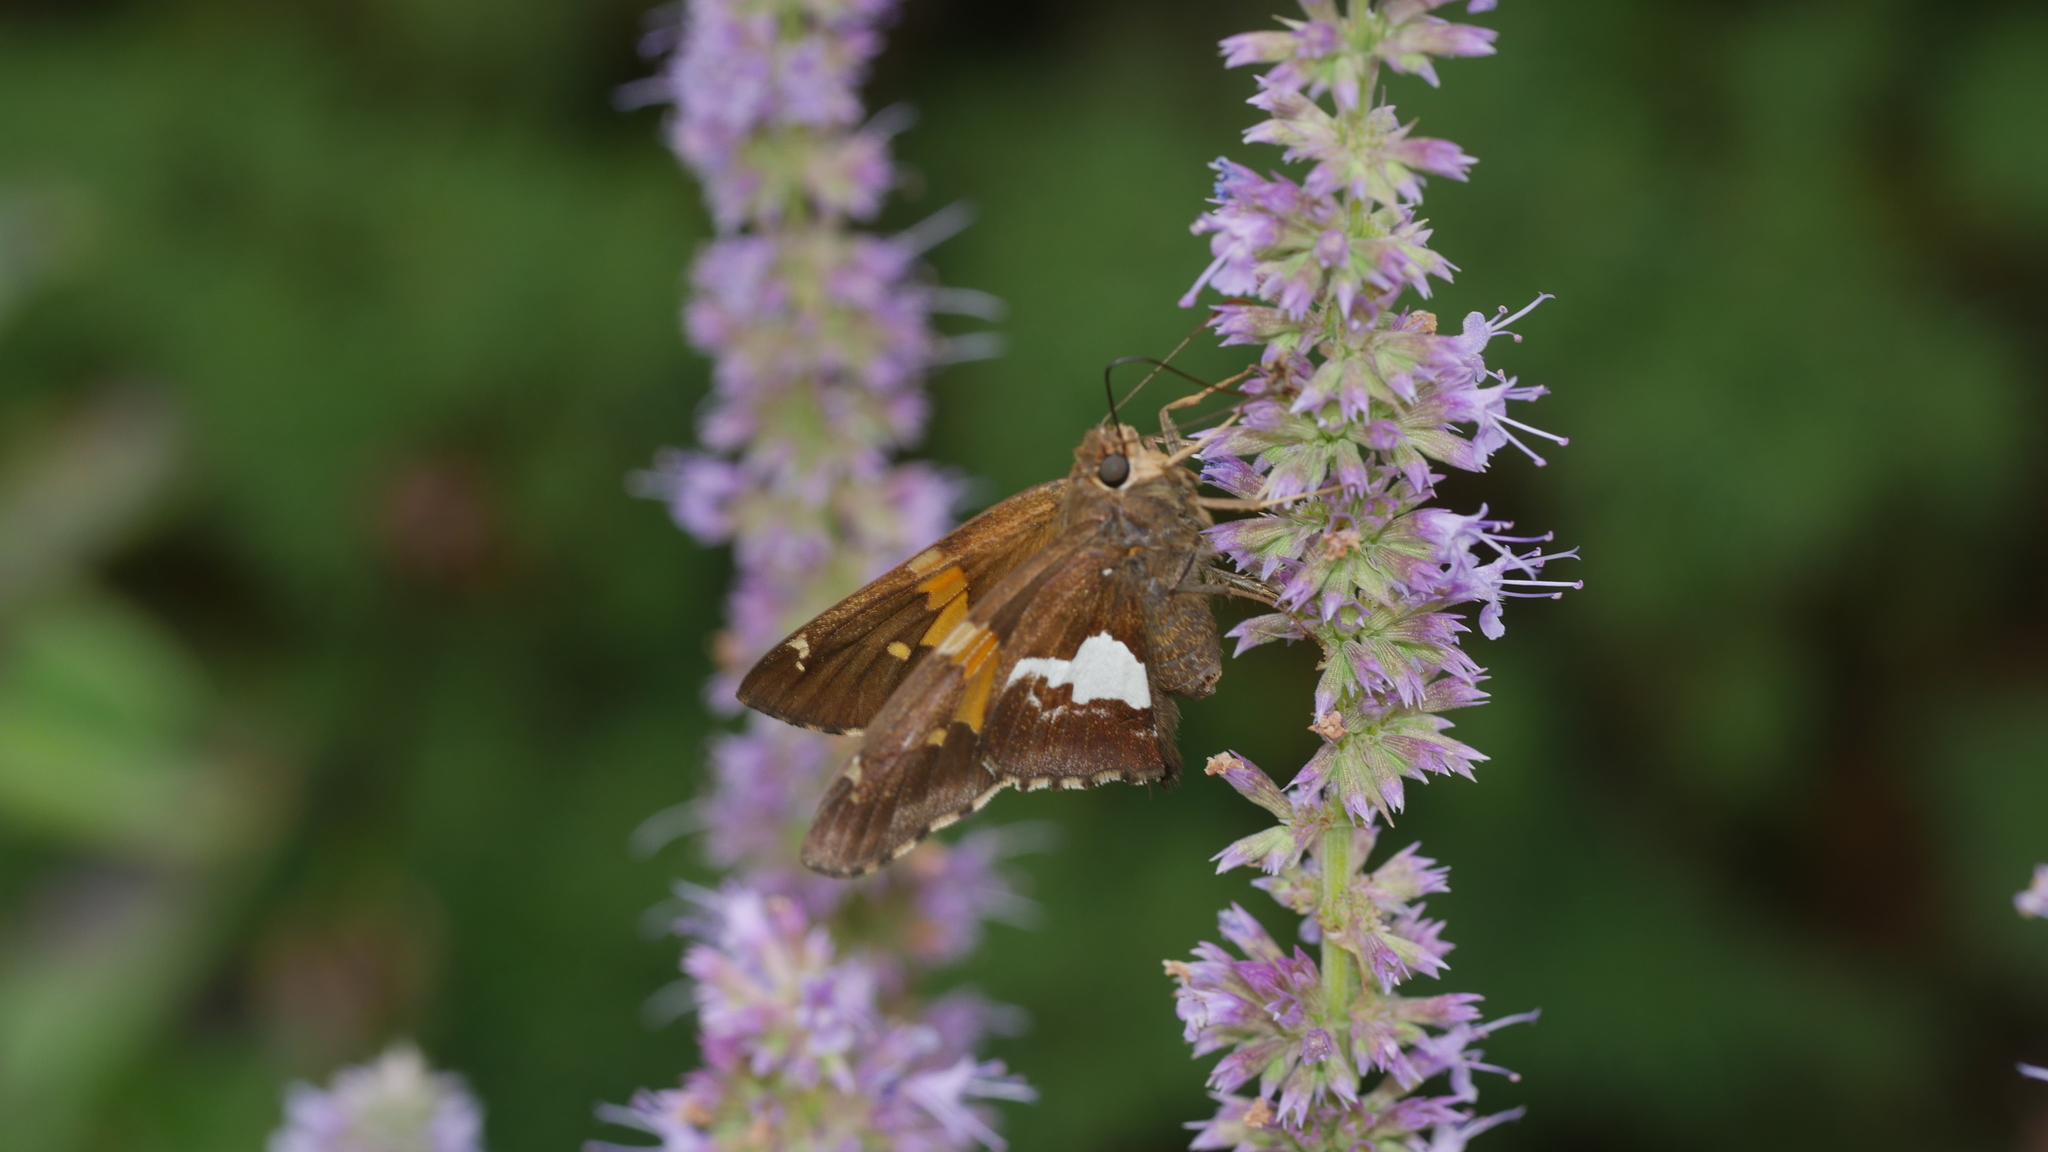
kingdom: Animalia
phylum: Arthropoda
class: Insecta
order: Lepidoptera
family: Hesperiidae
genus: Epargyreus
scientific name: Epargyreus clarus
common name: Silver-spotted skipper
